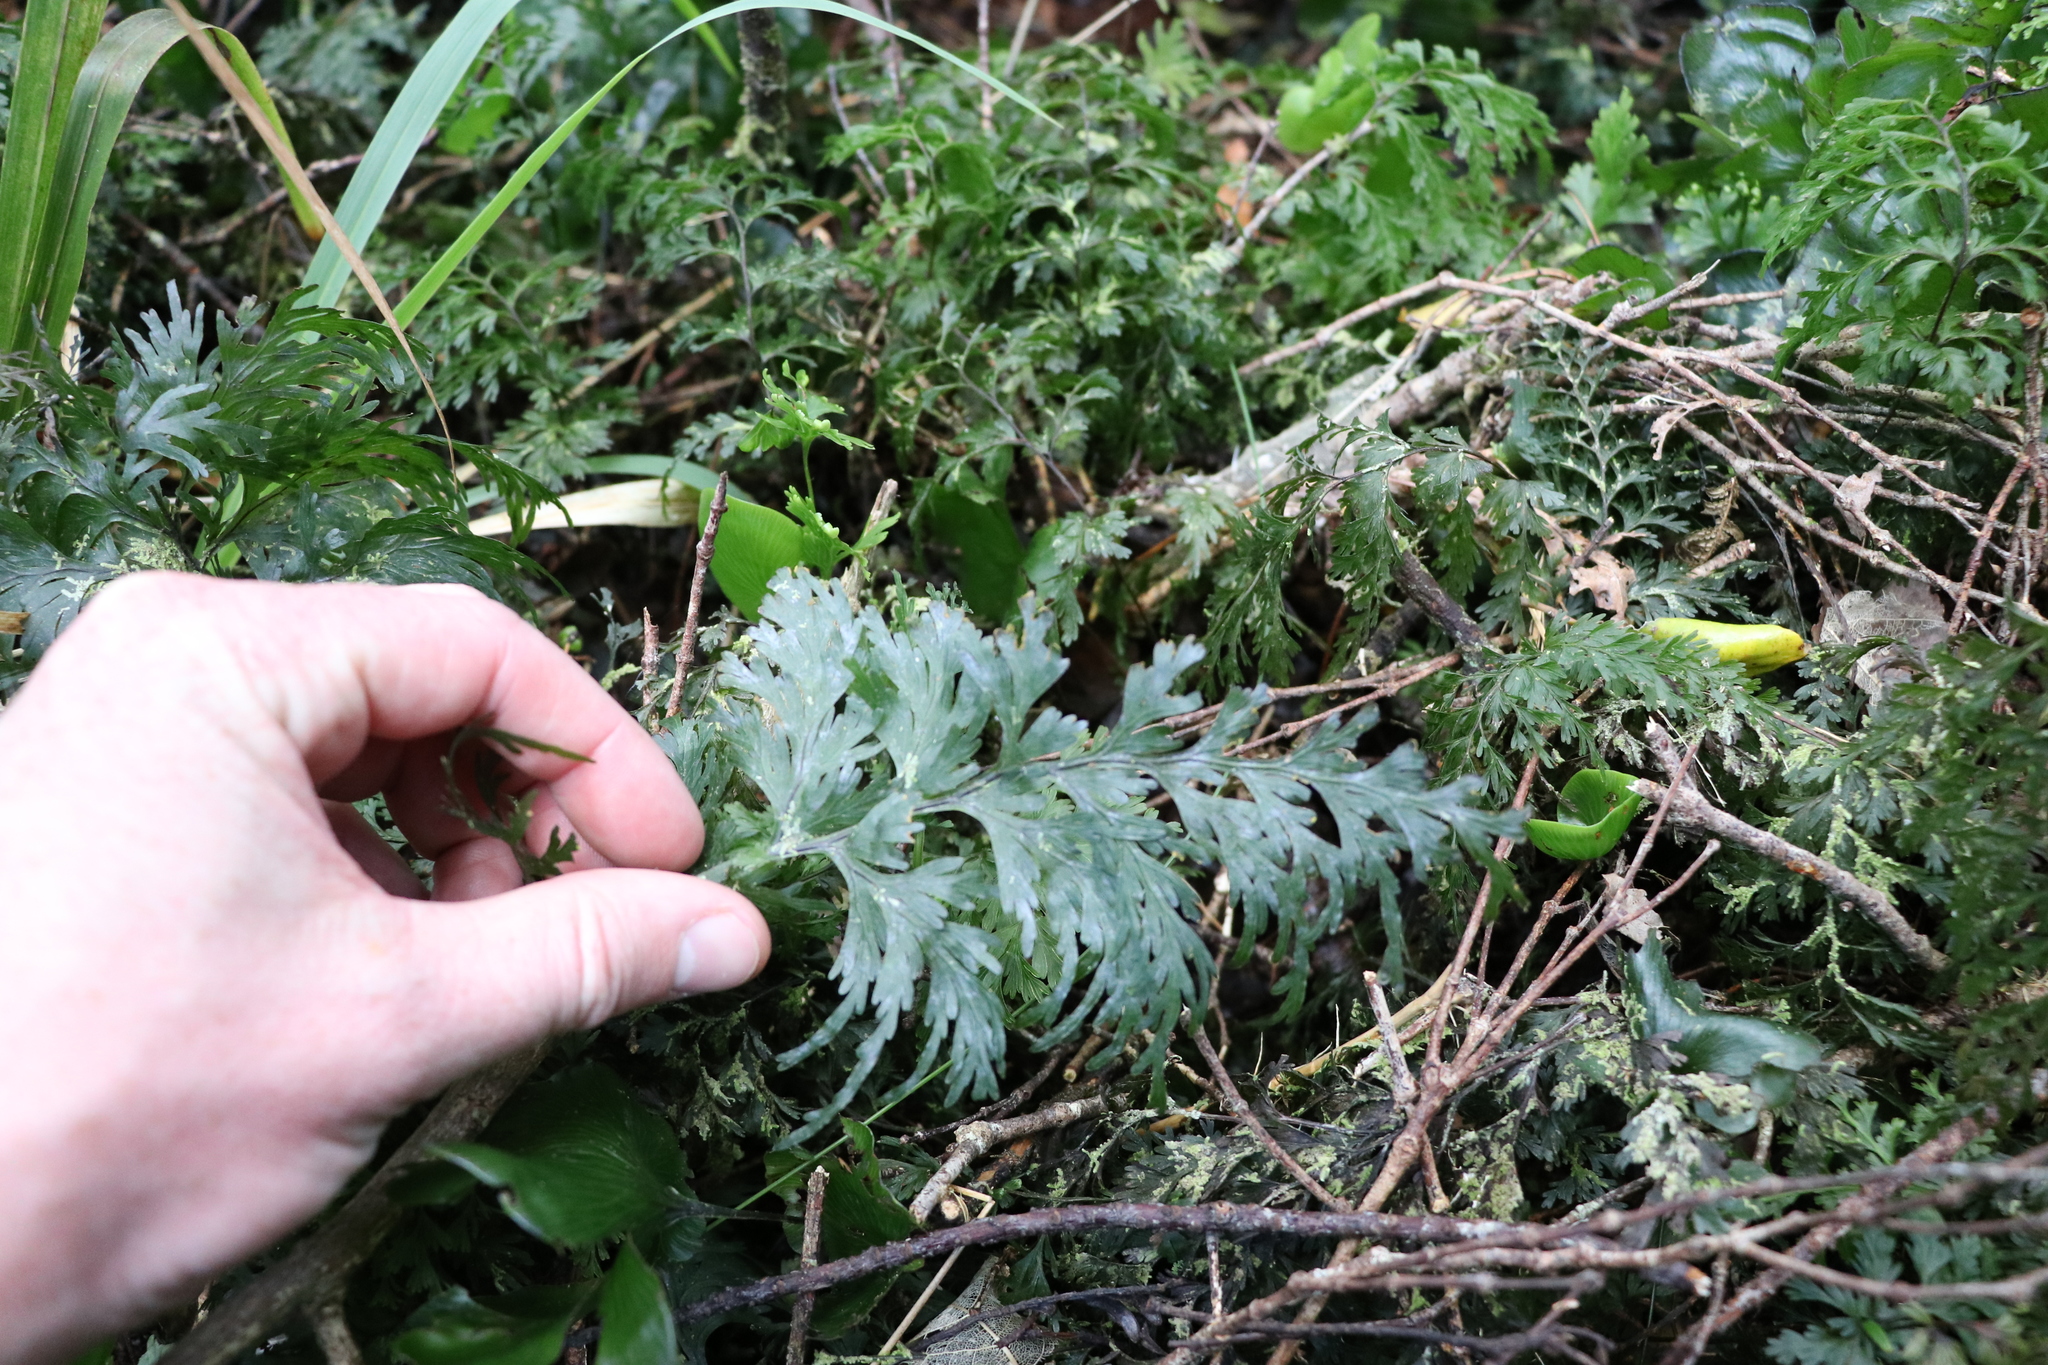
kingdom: Plantae
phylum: Tracheophyta
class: Polypodiopsida
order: Hymenophyllales
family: Hymenophyllaceae
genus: Hymenophyllum
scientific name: Hymenophyllum dilatatum
